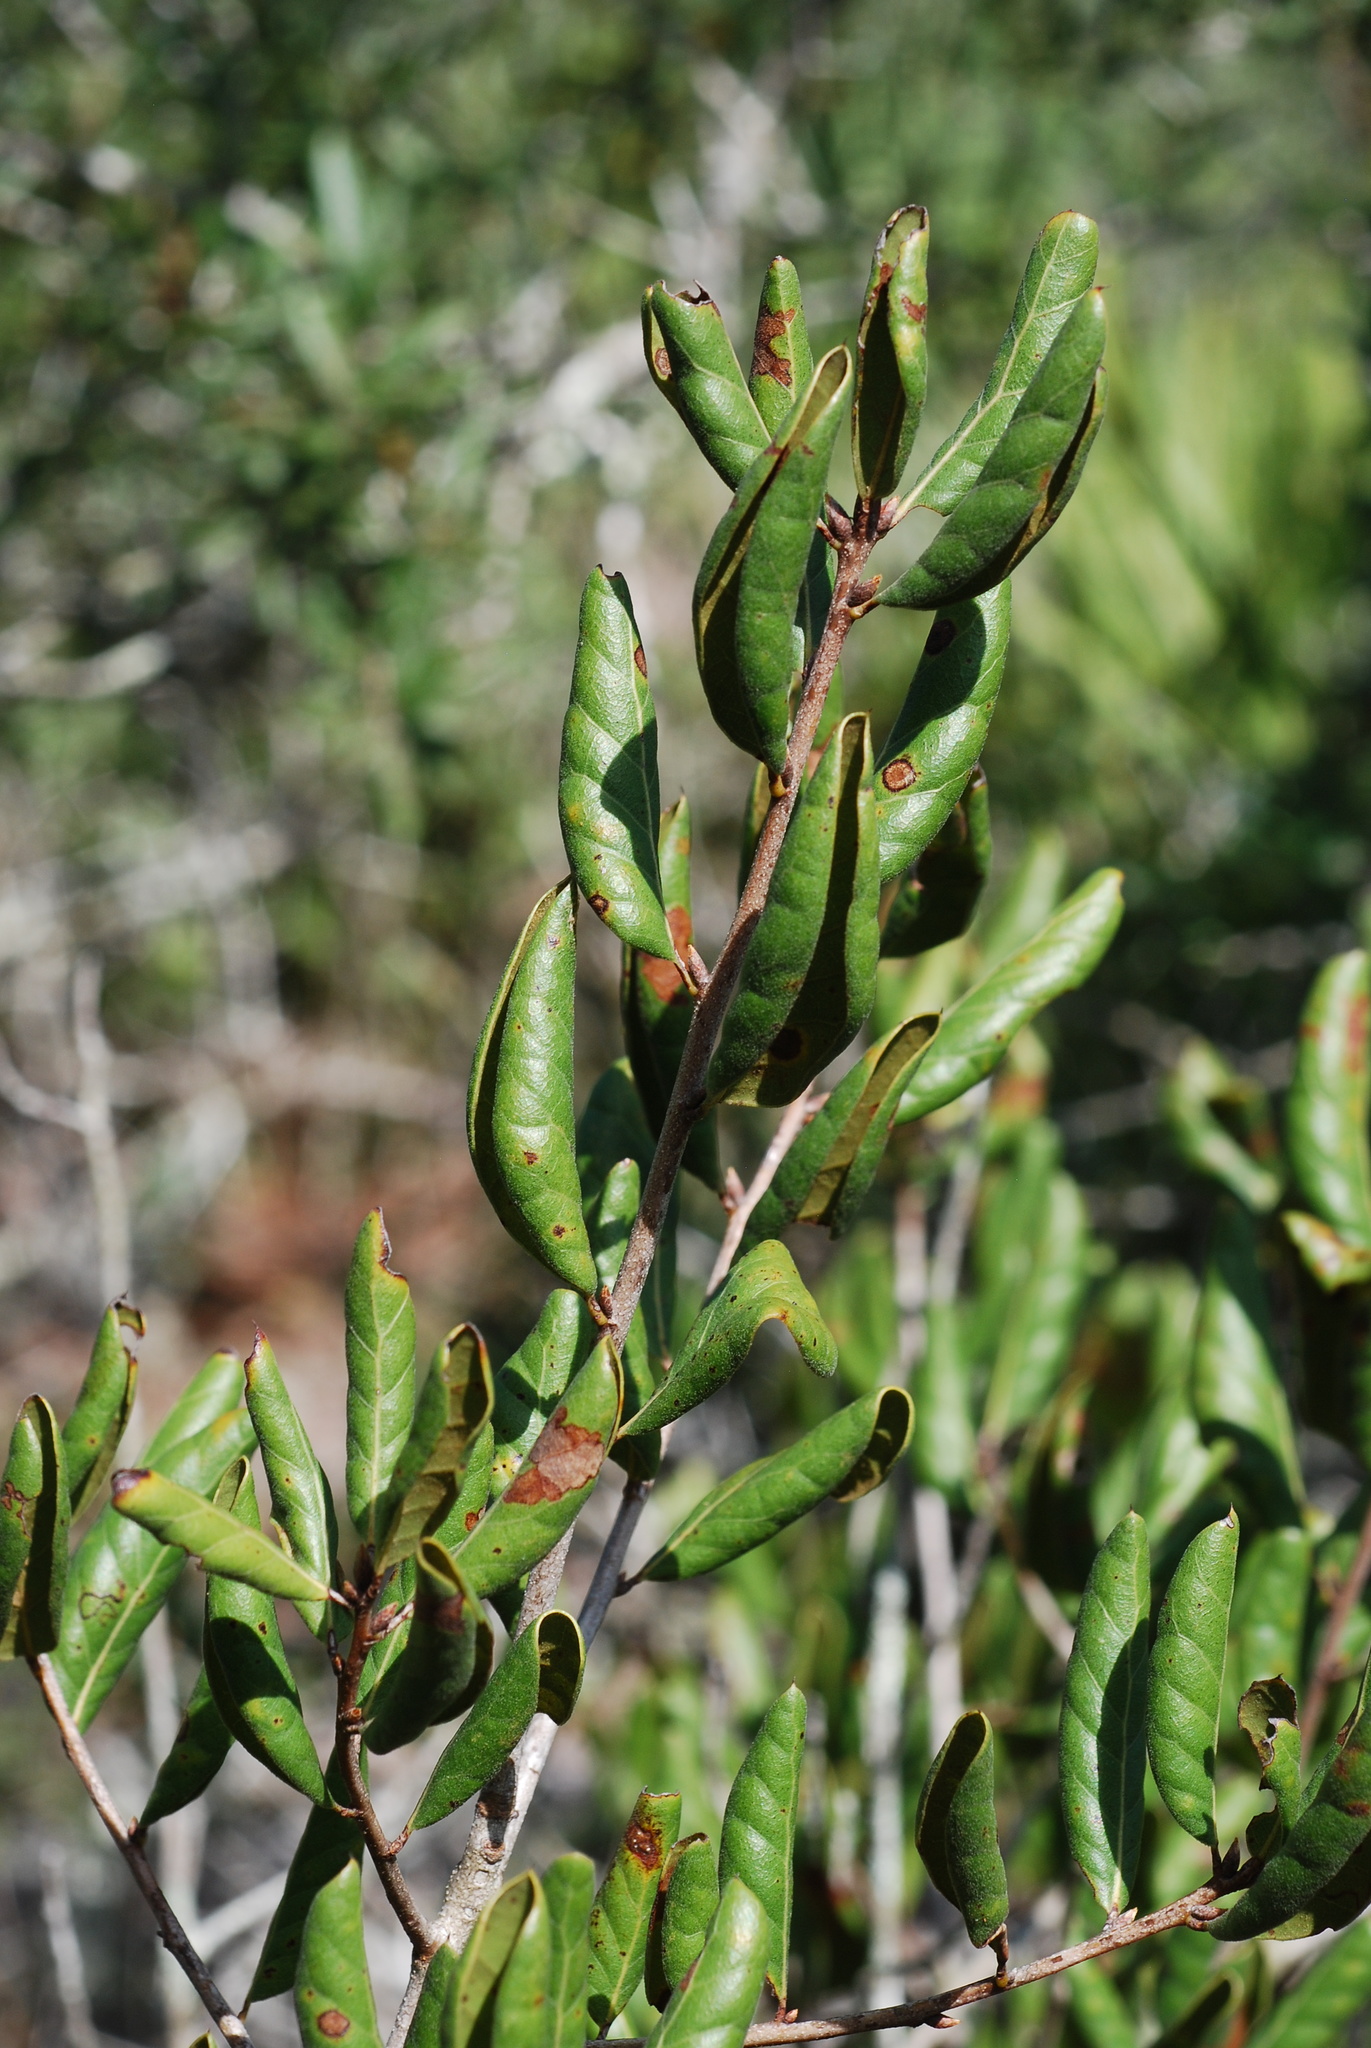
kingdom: Plantae
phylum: Tracheophyta
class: Magnoliopsida
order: Fagales
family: Fagaceae
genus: Quercus
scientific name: Quercus inopina
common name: Sandhill oak
